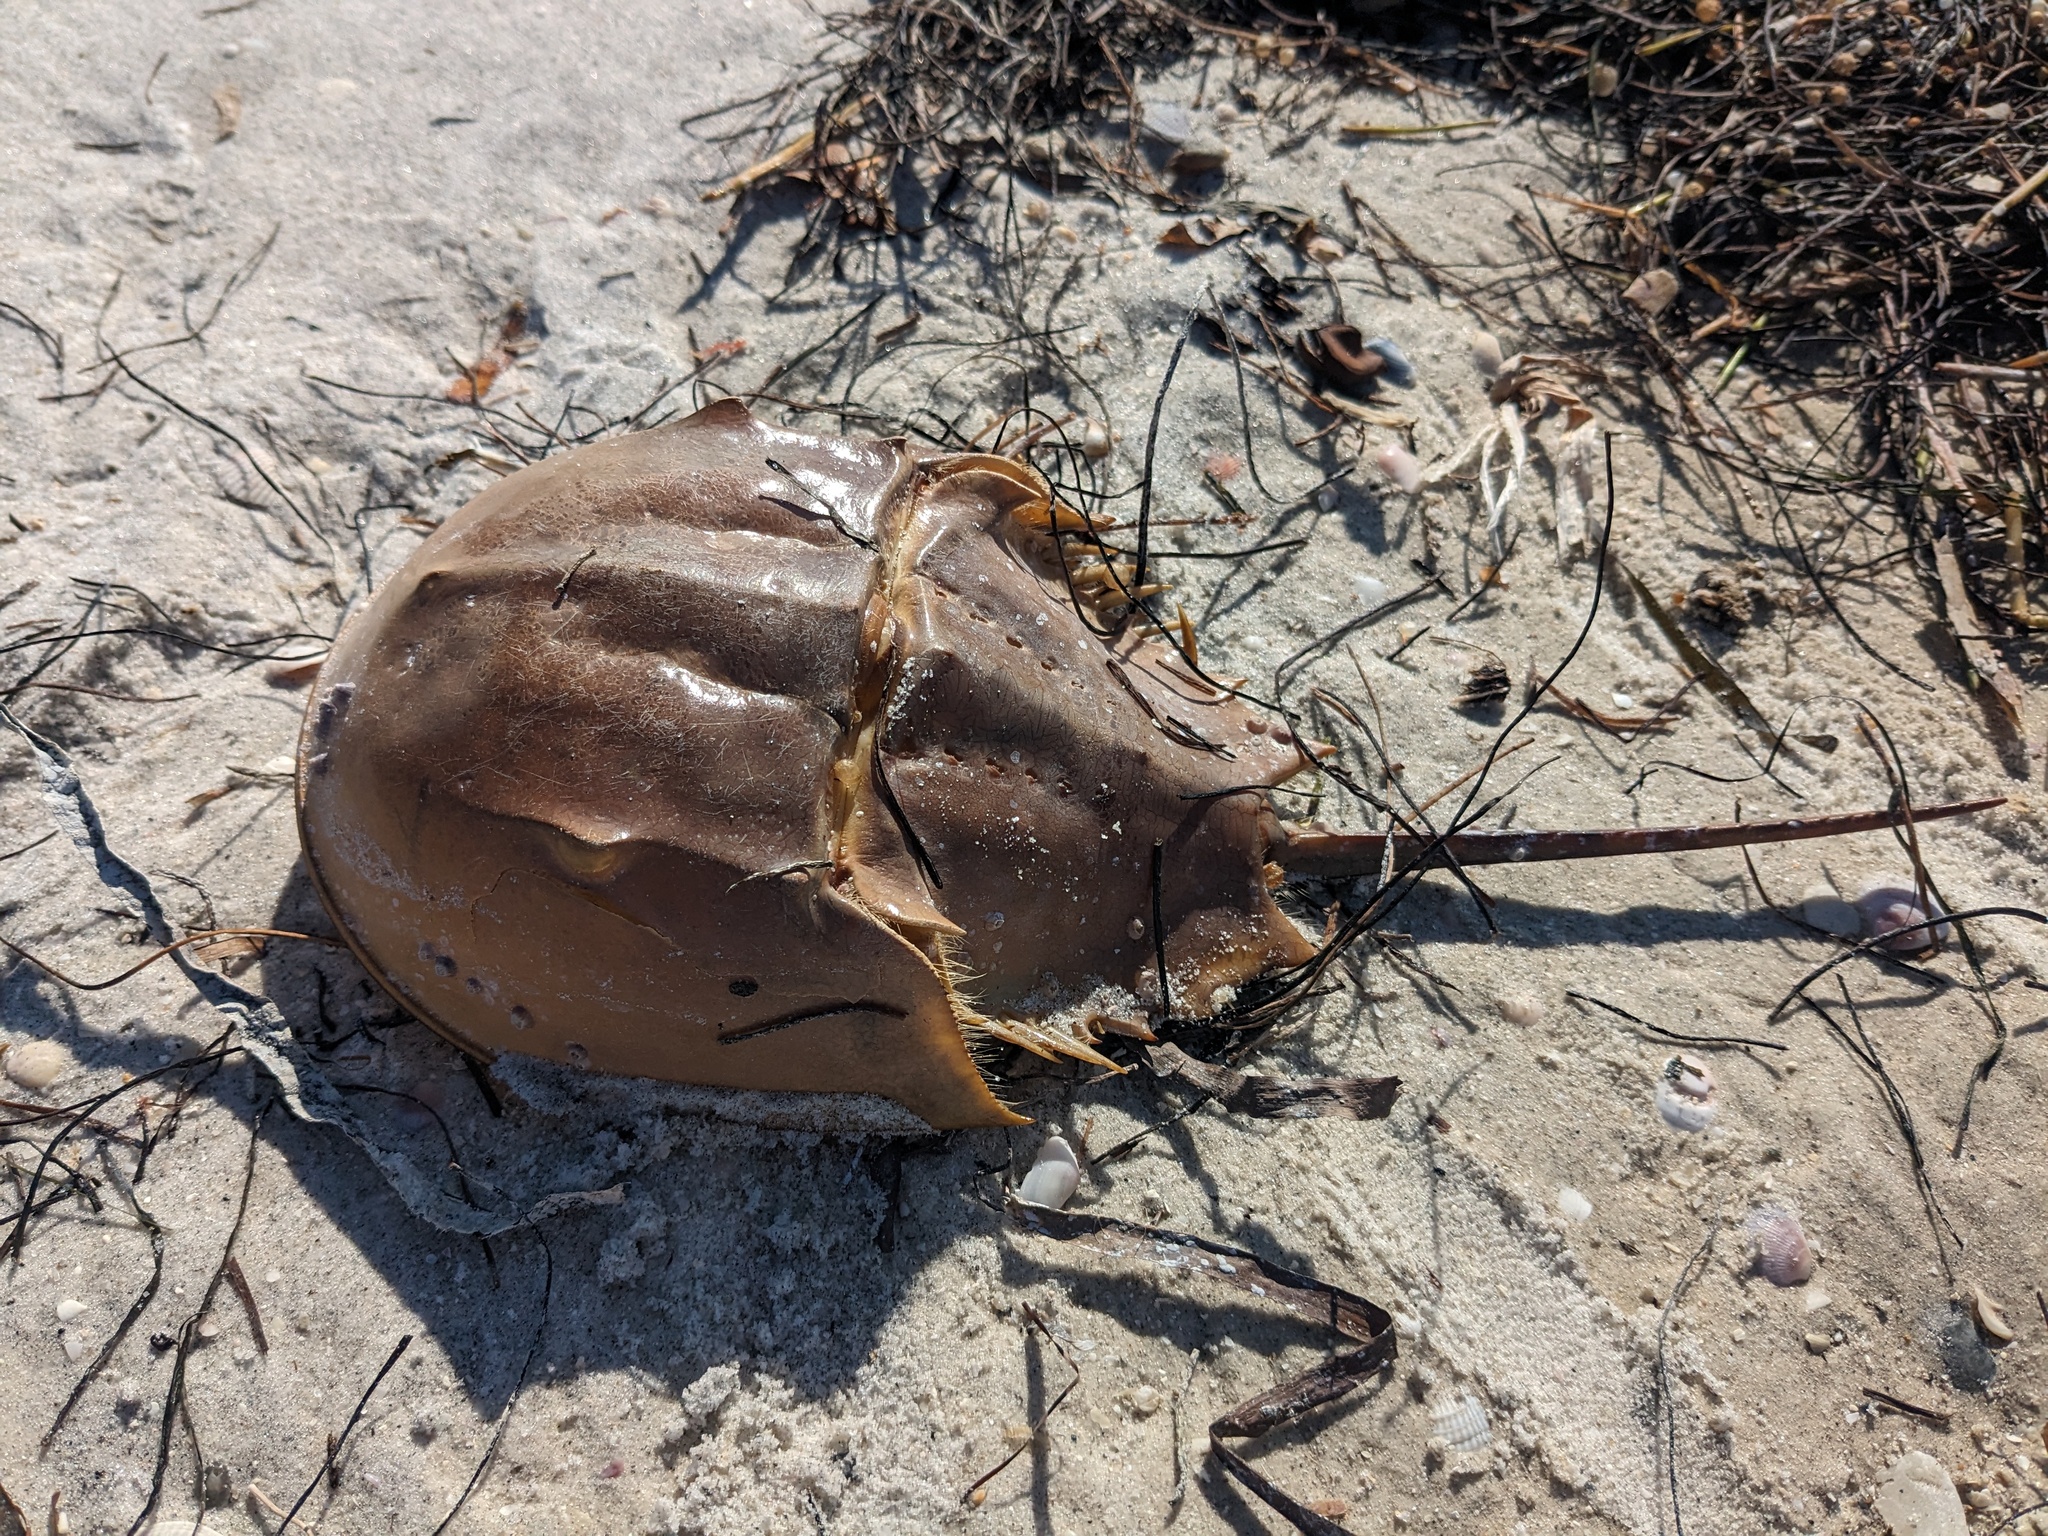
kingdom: Animalia
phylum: Arthropoda
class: Merostomata
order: Xiphosurida
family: Limulidae
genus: Limulus
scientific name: Limulus polyphemus
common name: Horseshoe crab
